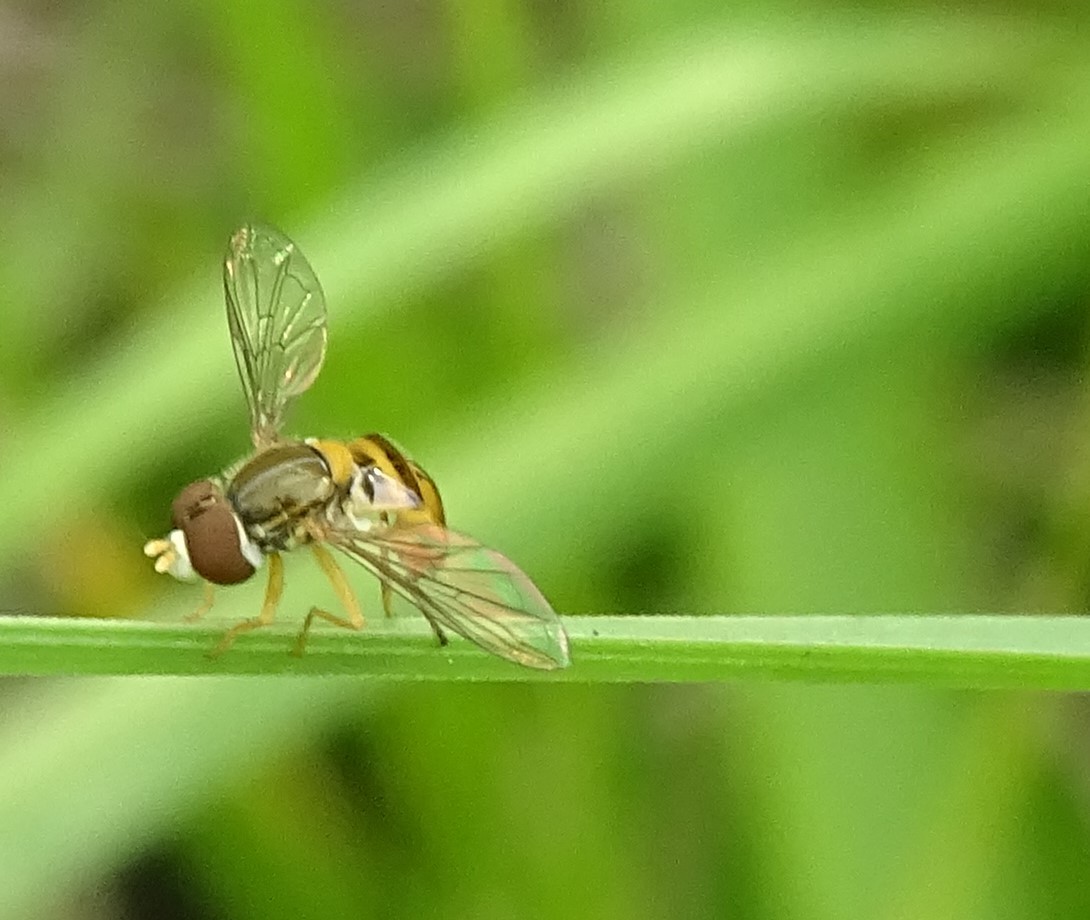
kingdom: Animalia
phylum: Arthropoda
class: Insecta
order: Diptera
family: Syrphidae
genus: Toxomerus
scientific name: Toxomerus
